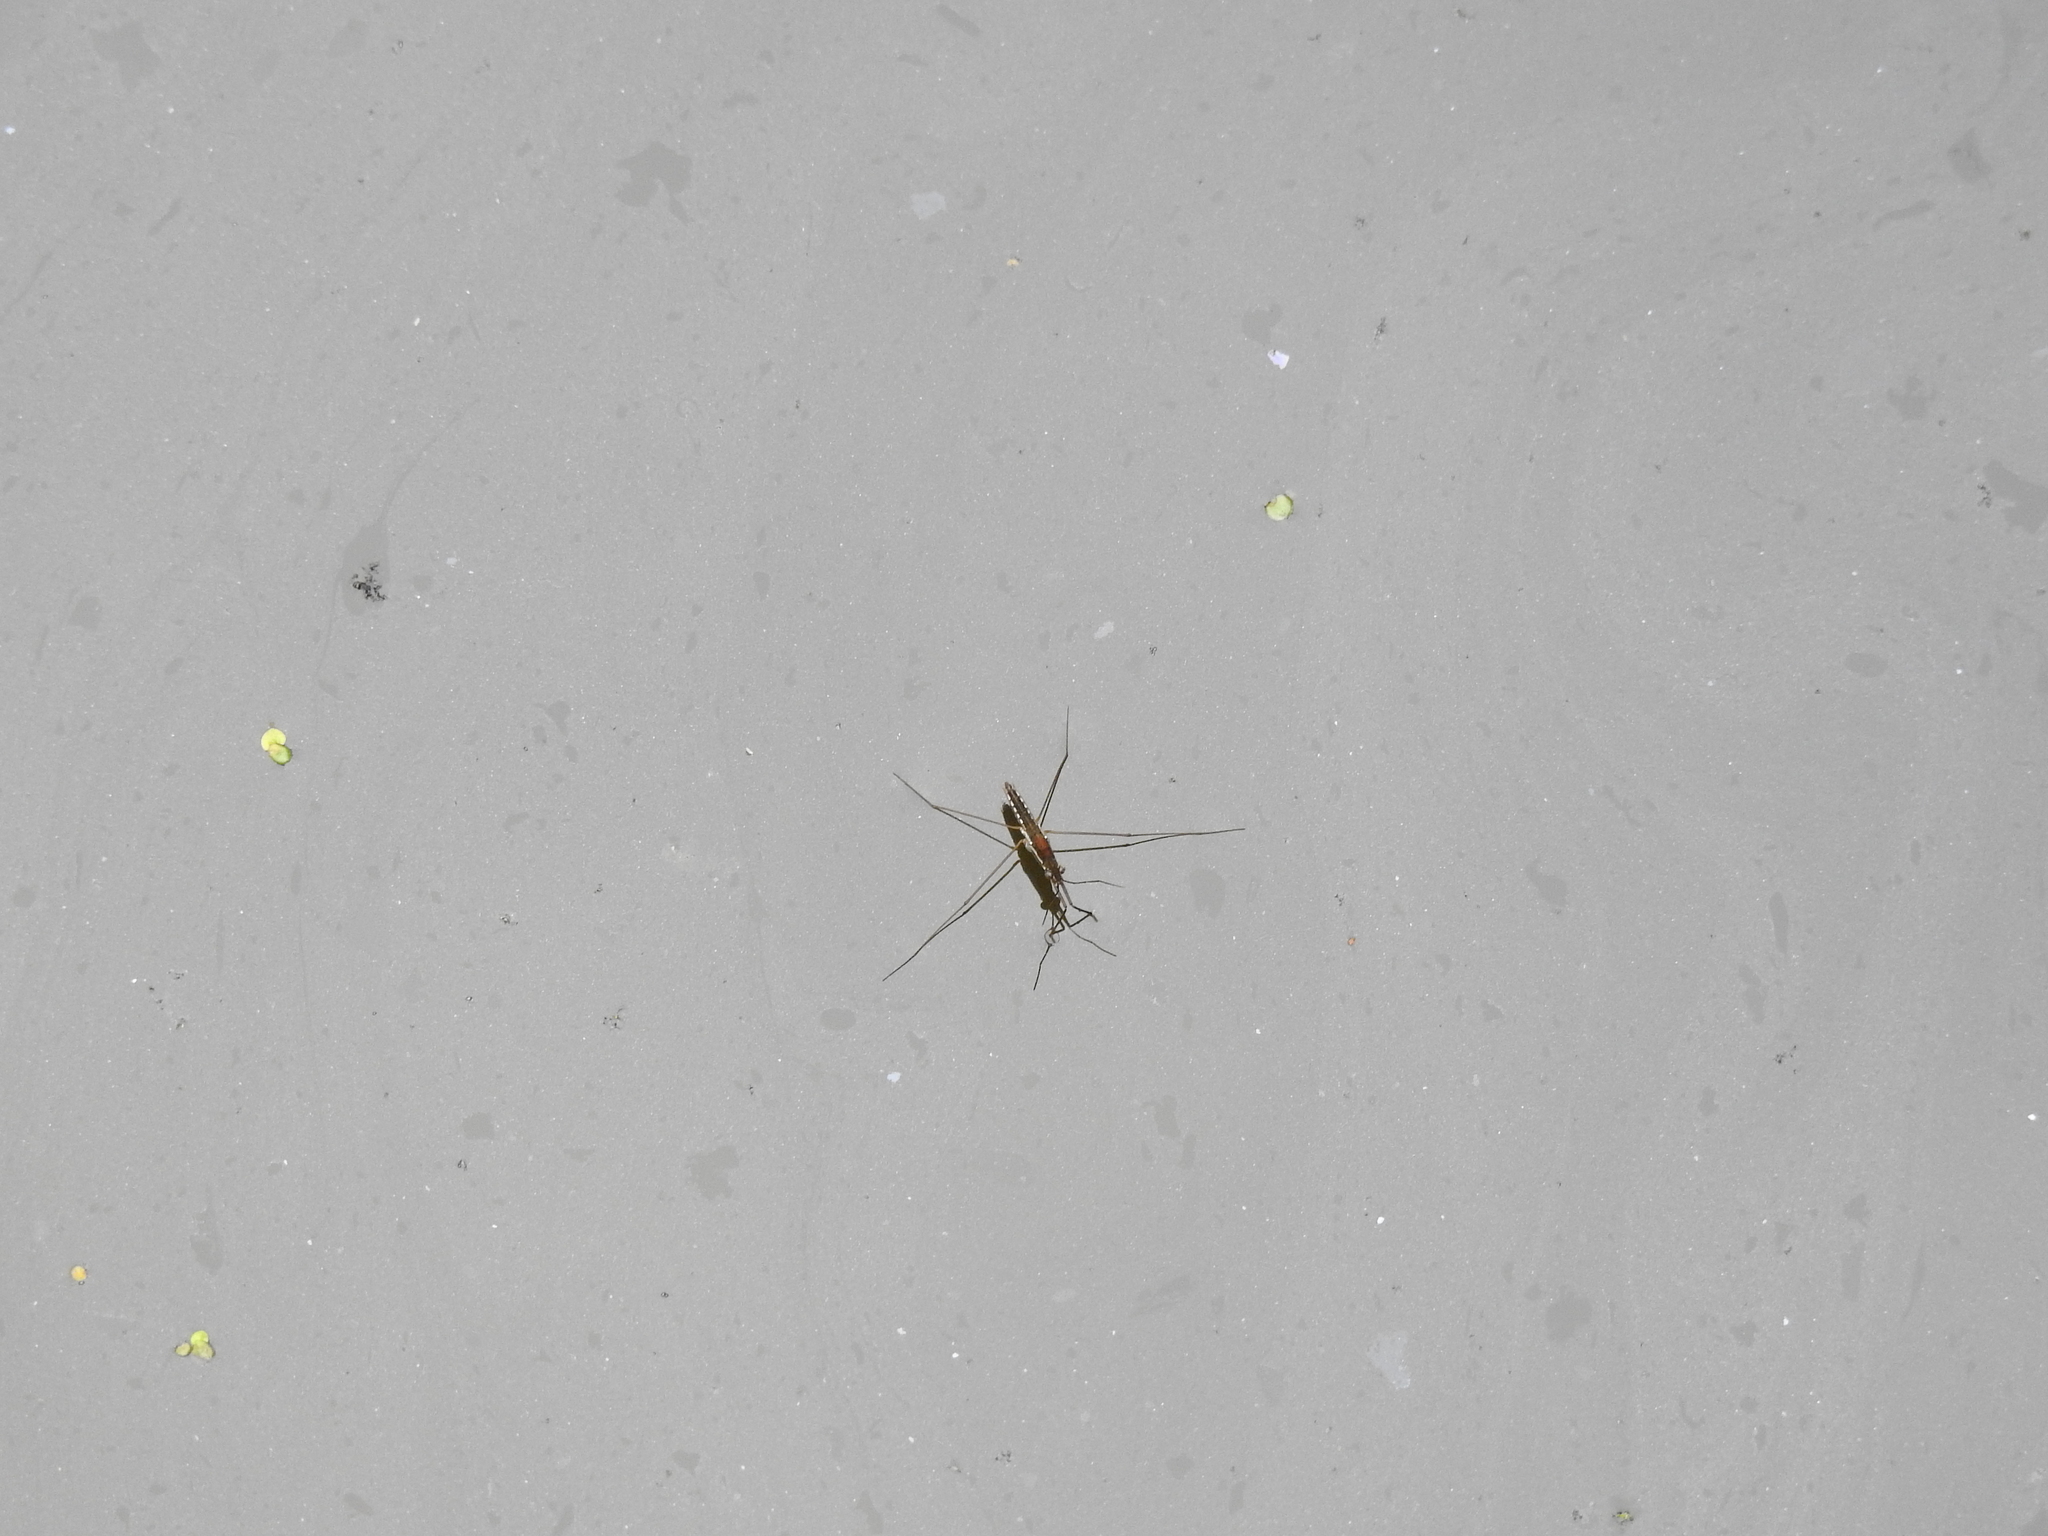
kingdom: Animalia
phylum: Arthropoda
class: Insecta
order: Hemiptera
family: Gerridae
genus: Limnoporus
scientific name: Limnoporus canaliculatus
